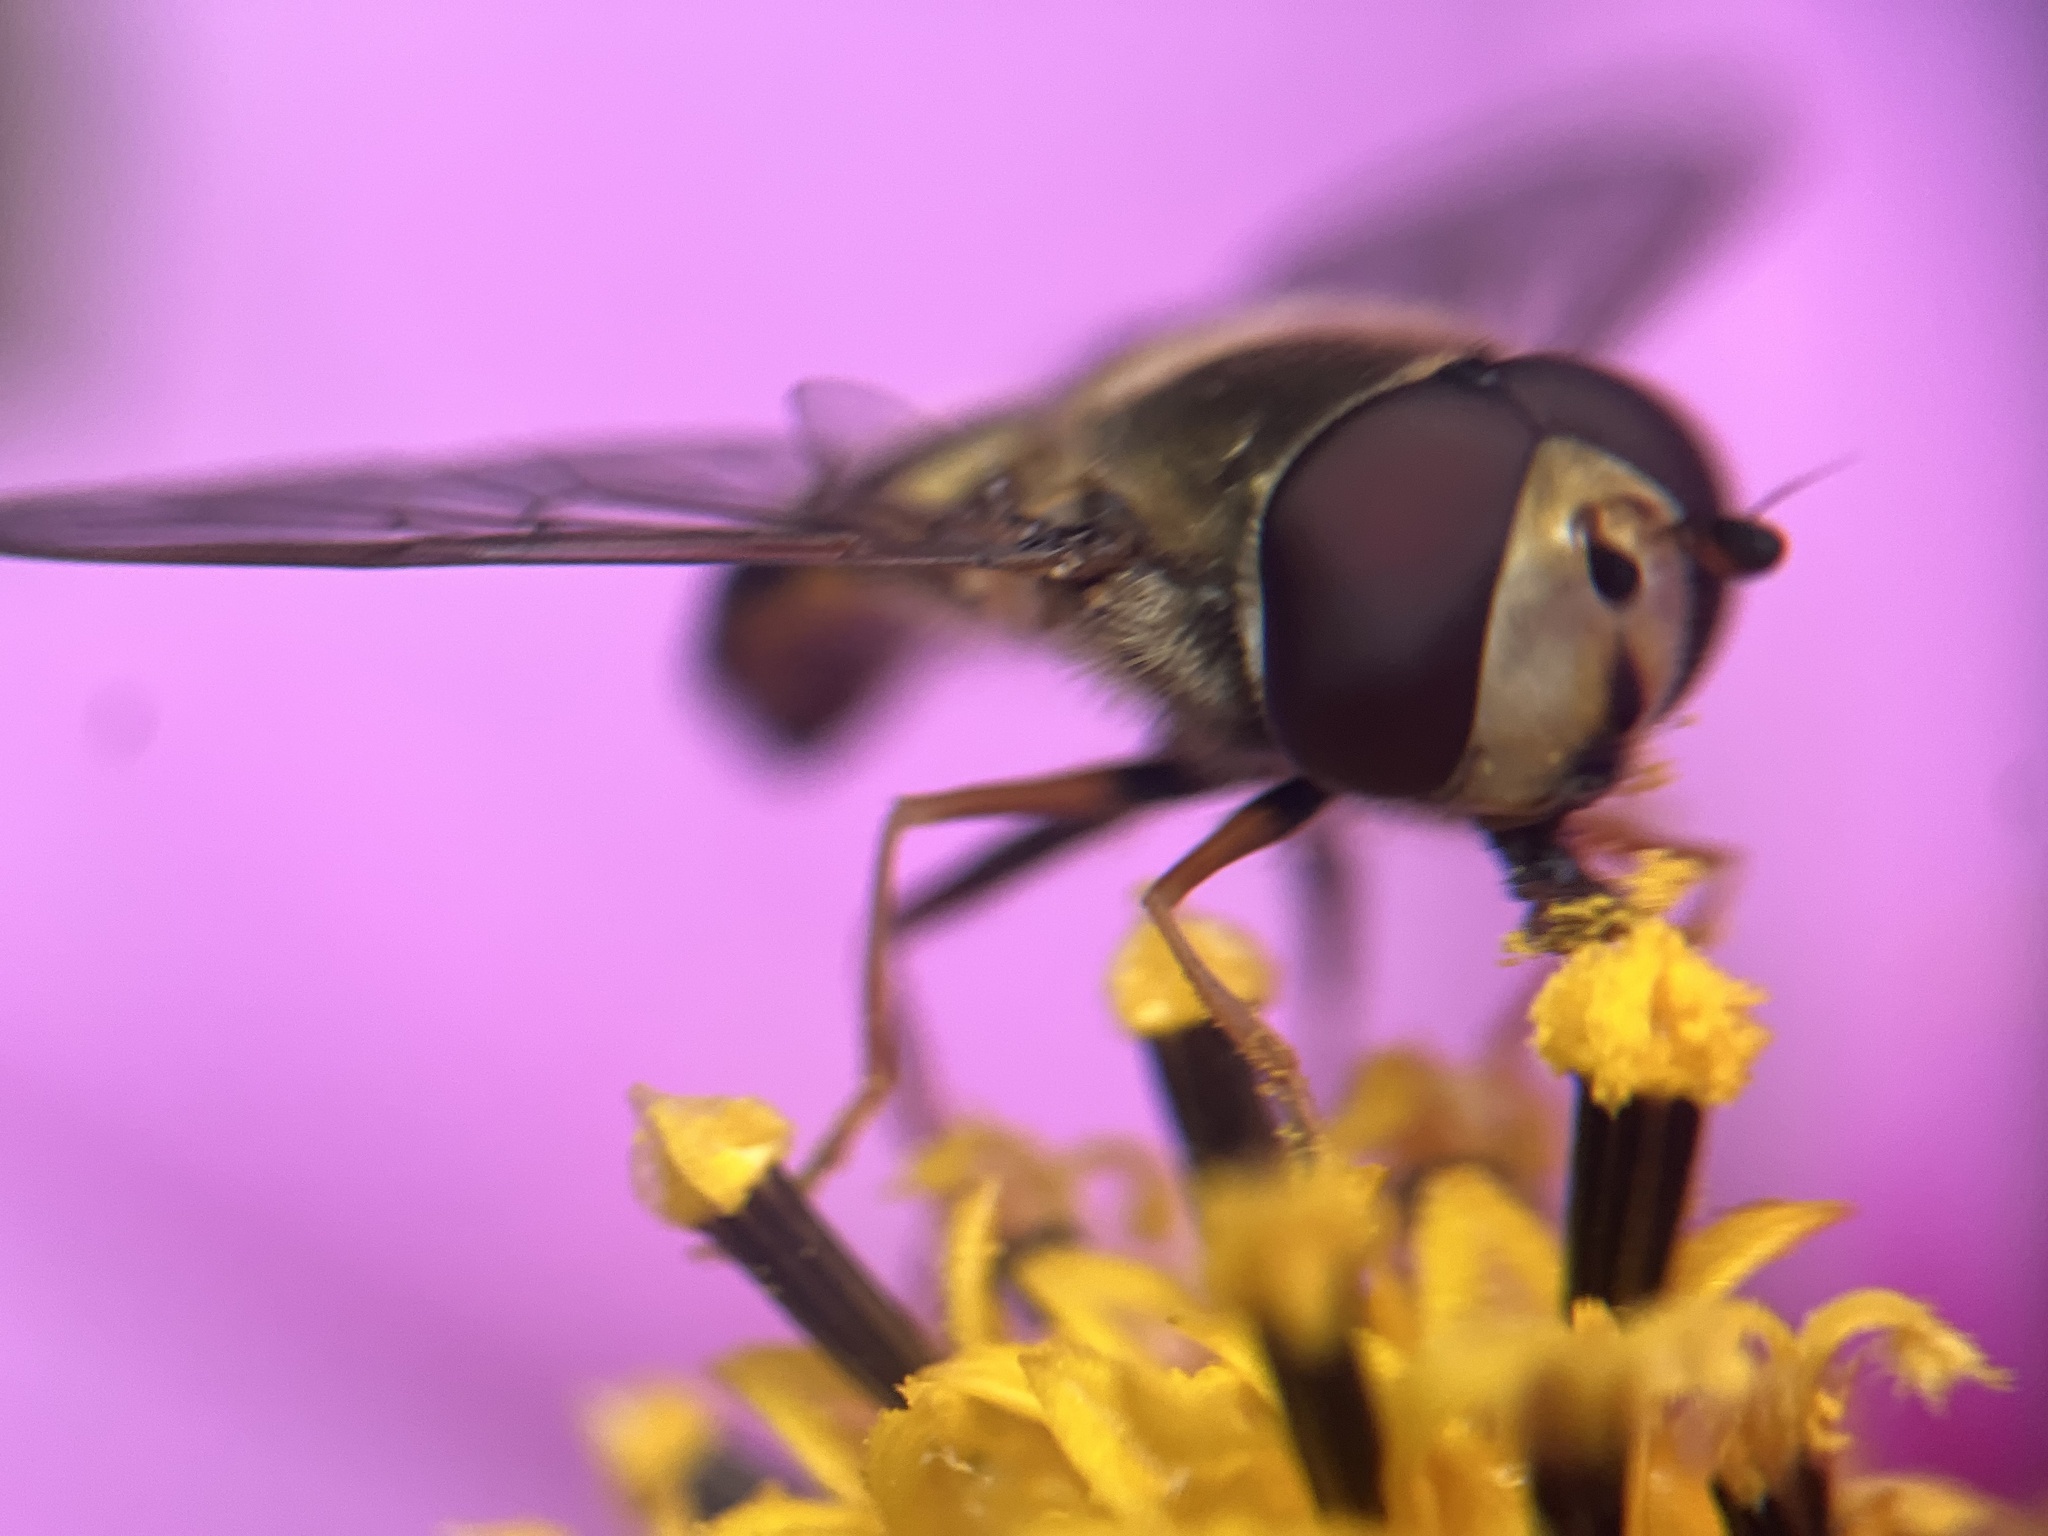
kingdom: Animalia
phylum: Arthropoda
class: Insecta
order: Diptera
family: Syrphidae
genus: Eupeodes
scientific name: Eupeodes fumipennis
